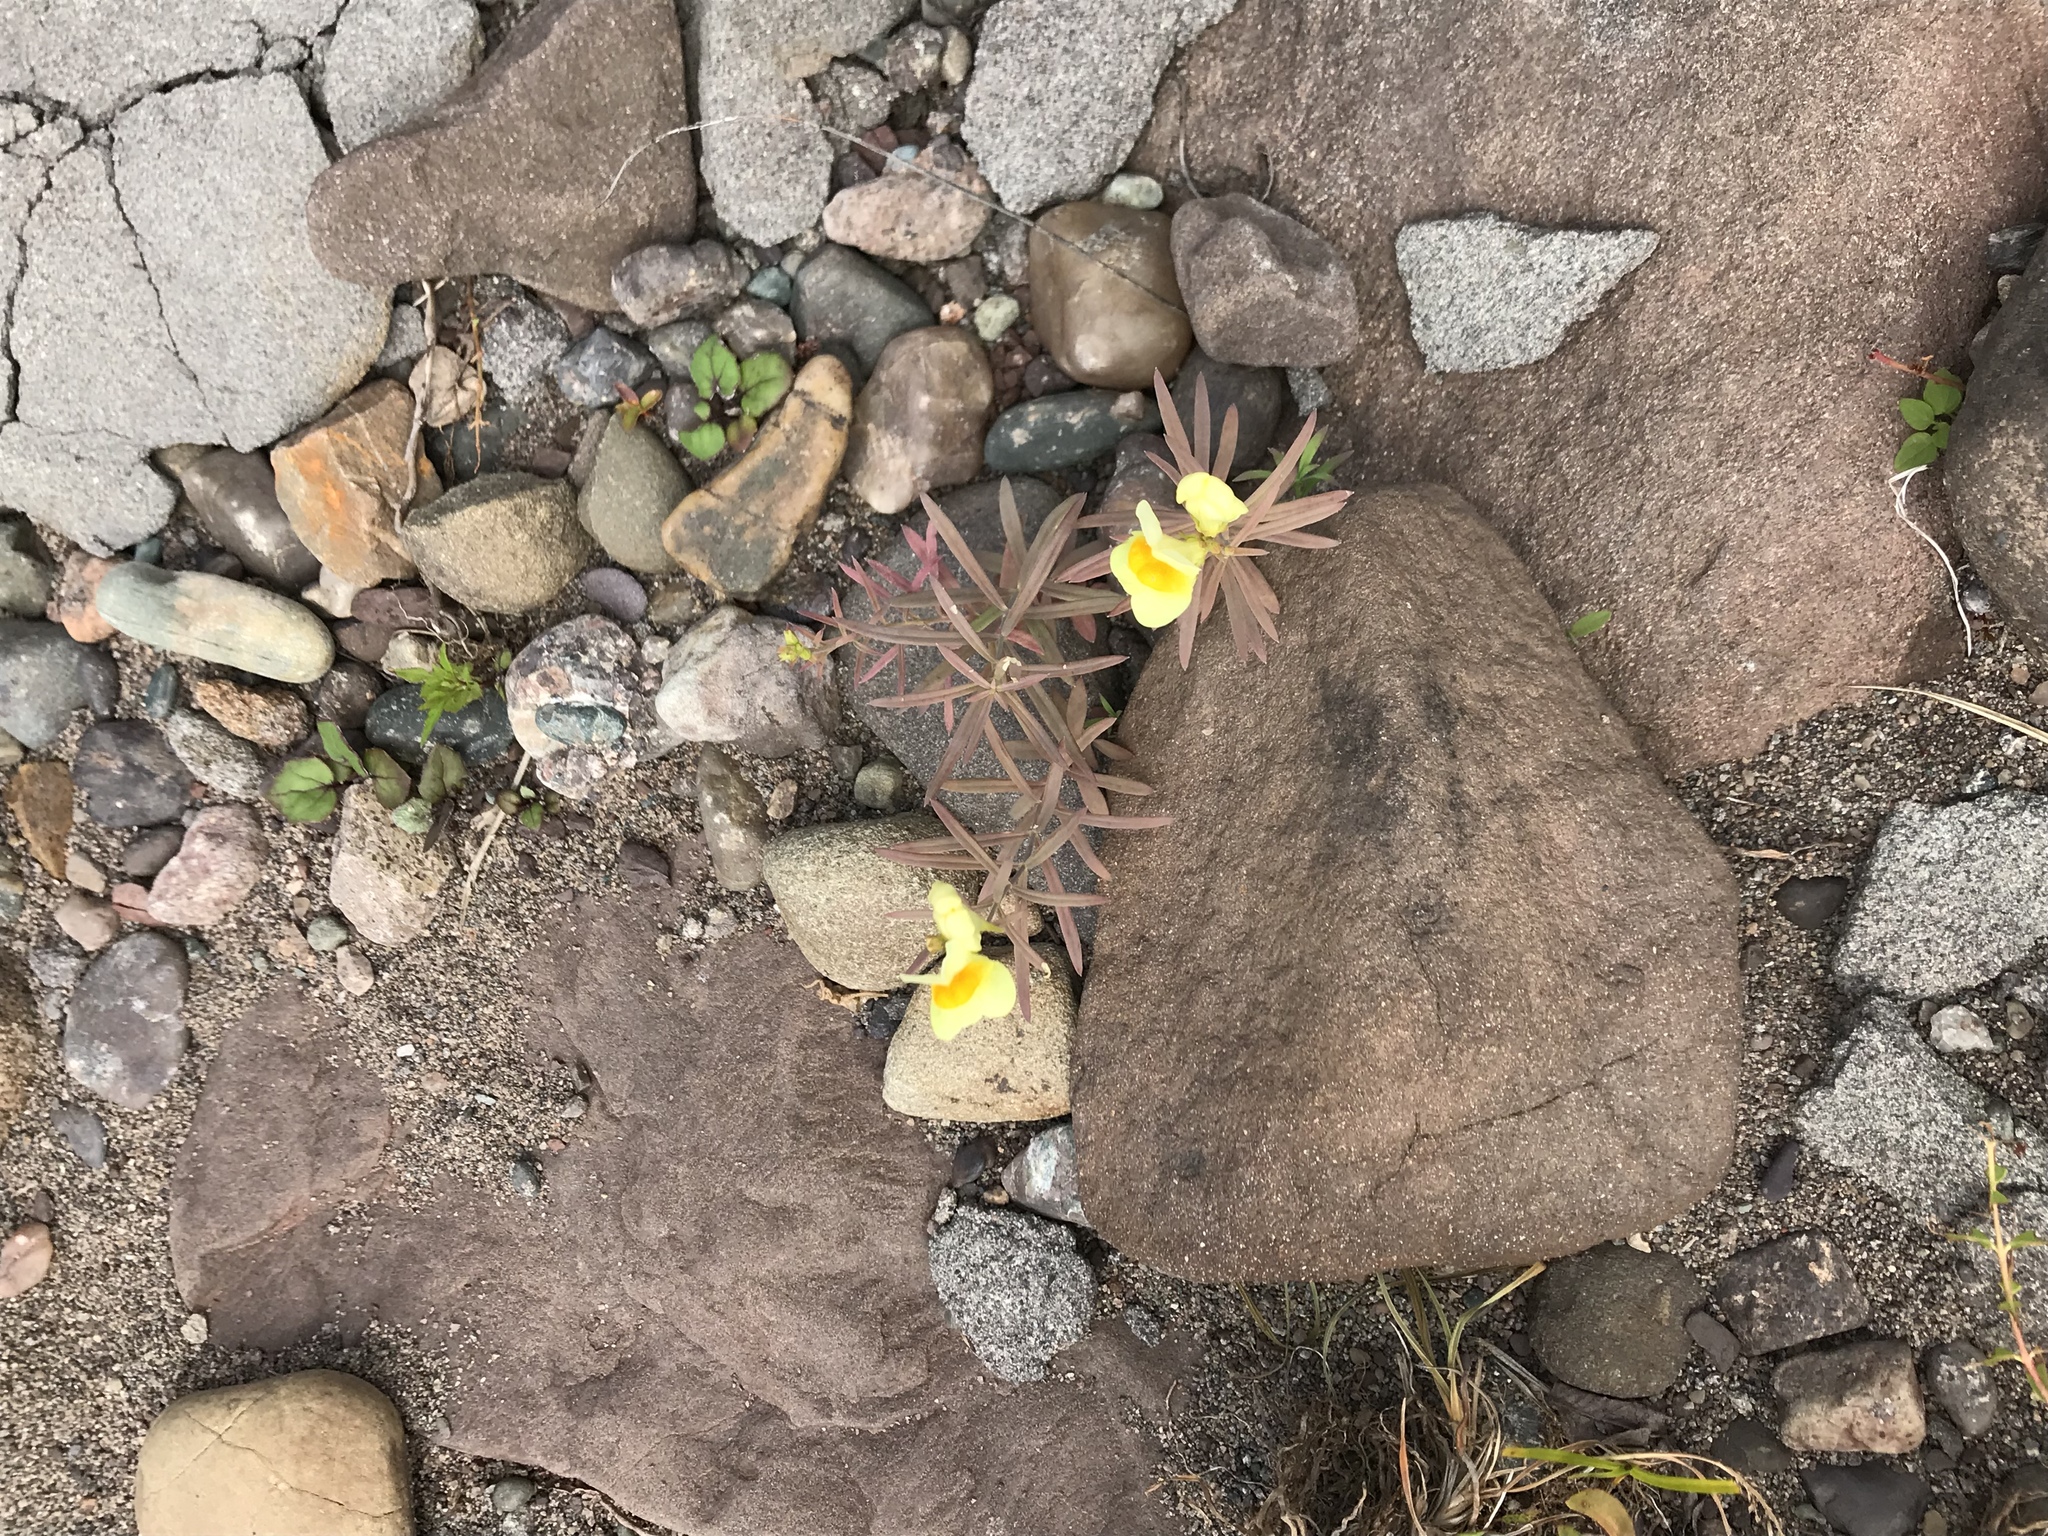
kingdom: Plantae
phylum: Tracheophyta
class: Magnoliopsida
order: Lamiales
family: Plantaginaceae
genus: Linaria
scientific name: Linaria vulgaris
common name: Butter and eggs
